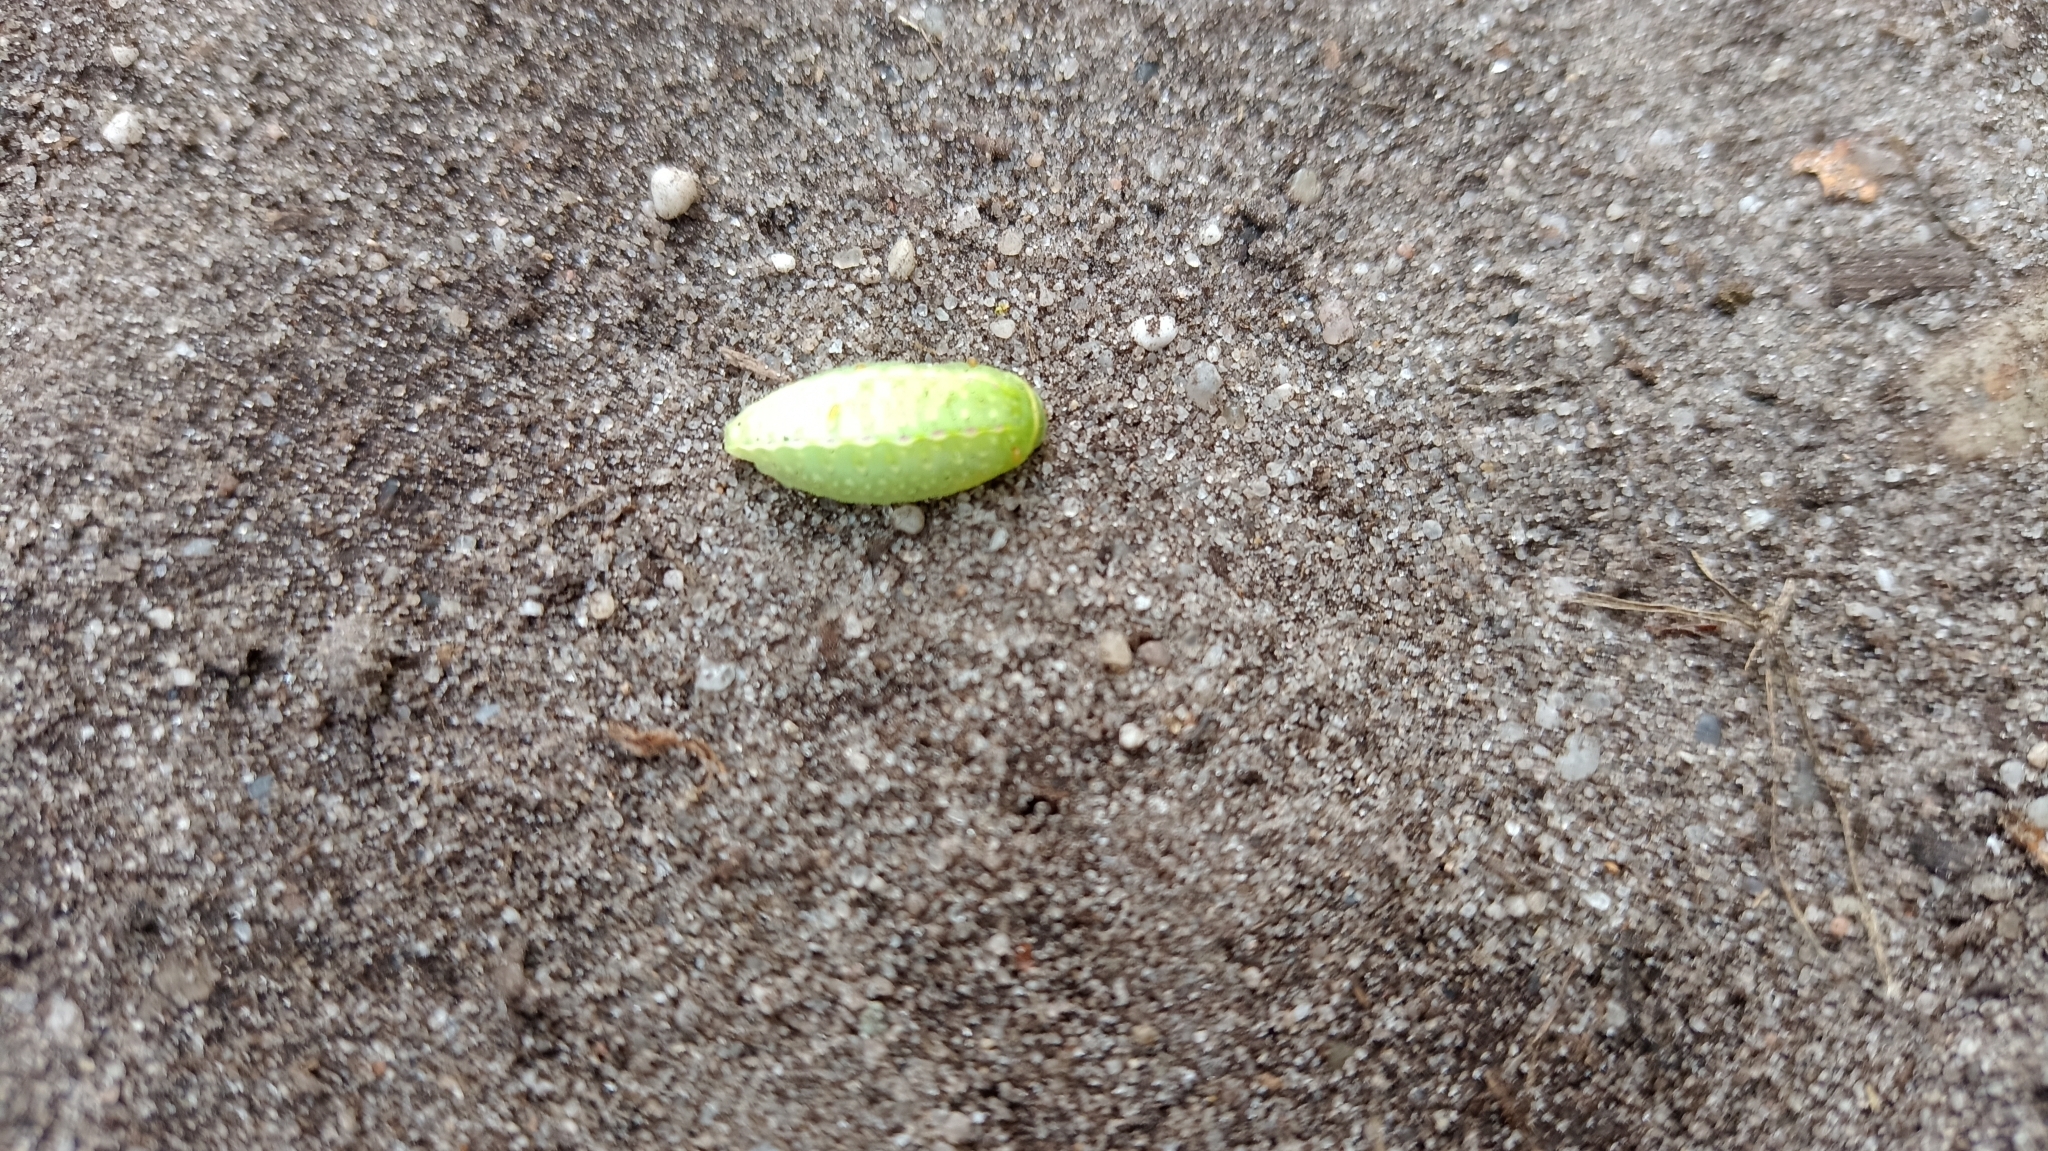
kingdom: Animalia
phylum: Arthropoda
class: Insecta
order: Lepidoptera
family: Limacodidae
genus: Apoda
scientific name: Apoda limacodes
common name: Festoon
